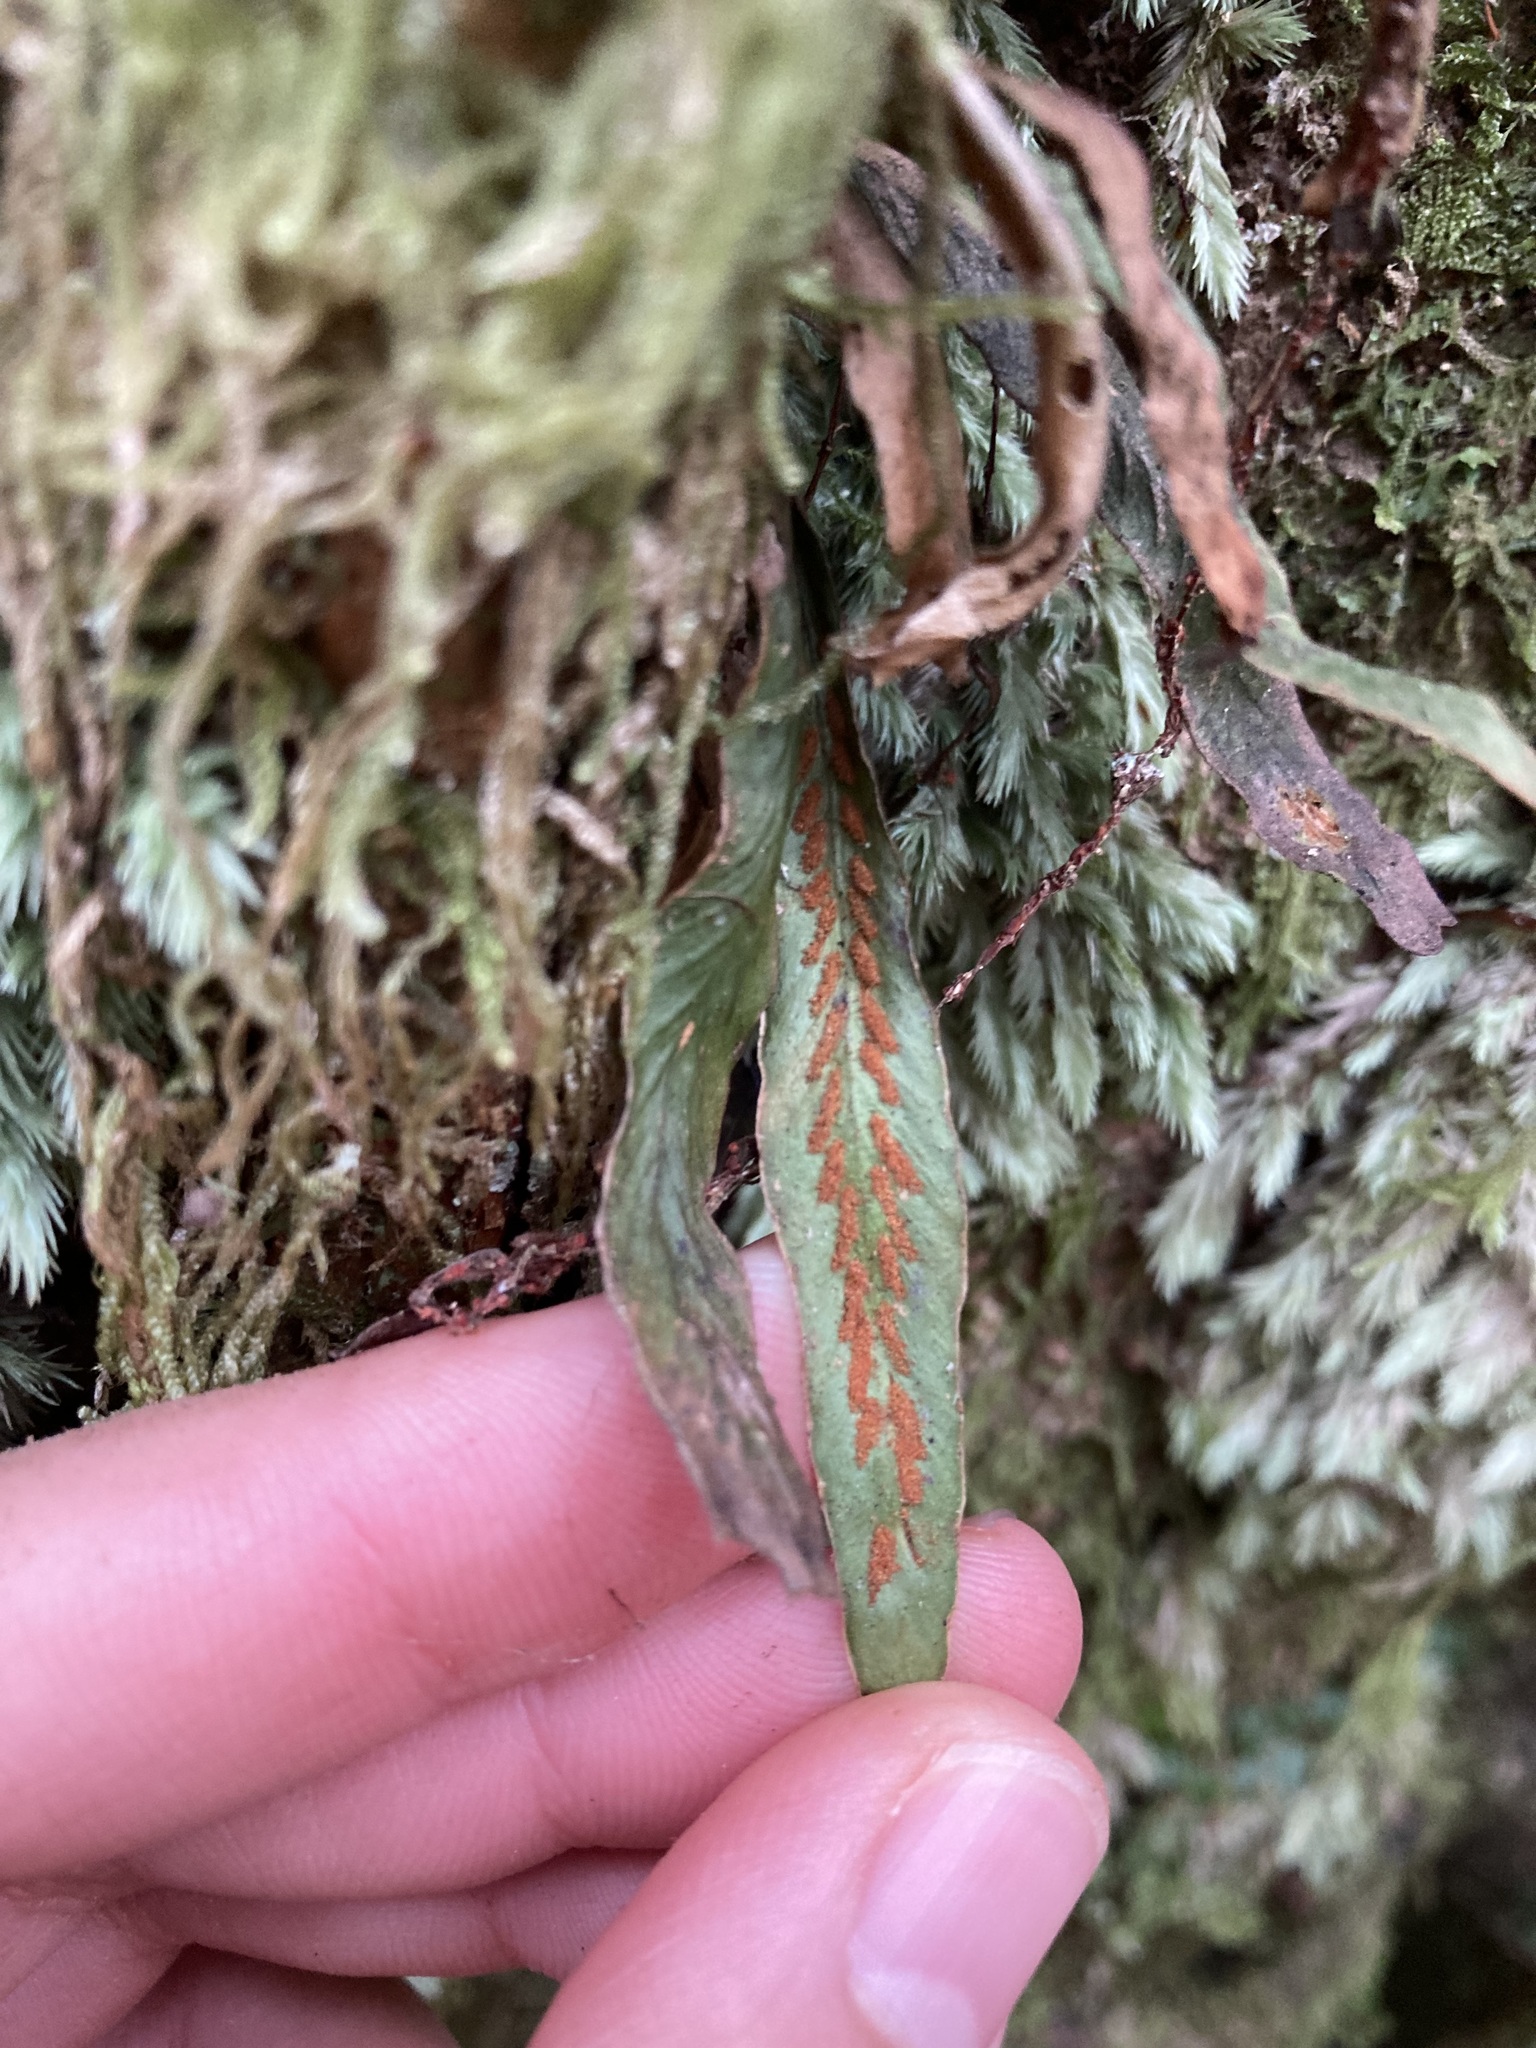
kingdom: Plantae
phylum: Tracheophyta
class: Polypodiopsida
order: Polypodiales
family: Polypodiaceae
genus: Notogrammitis
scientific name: Notogrammitis billardierei
